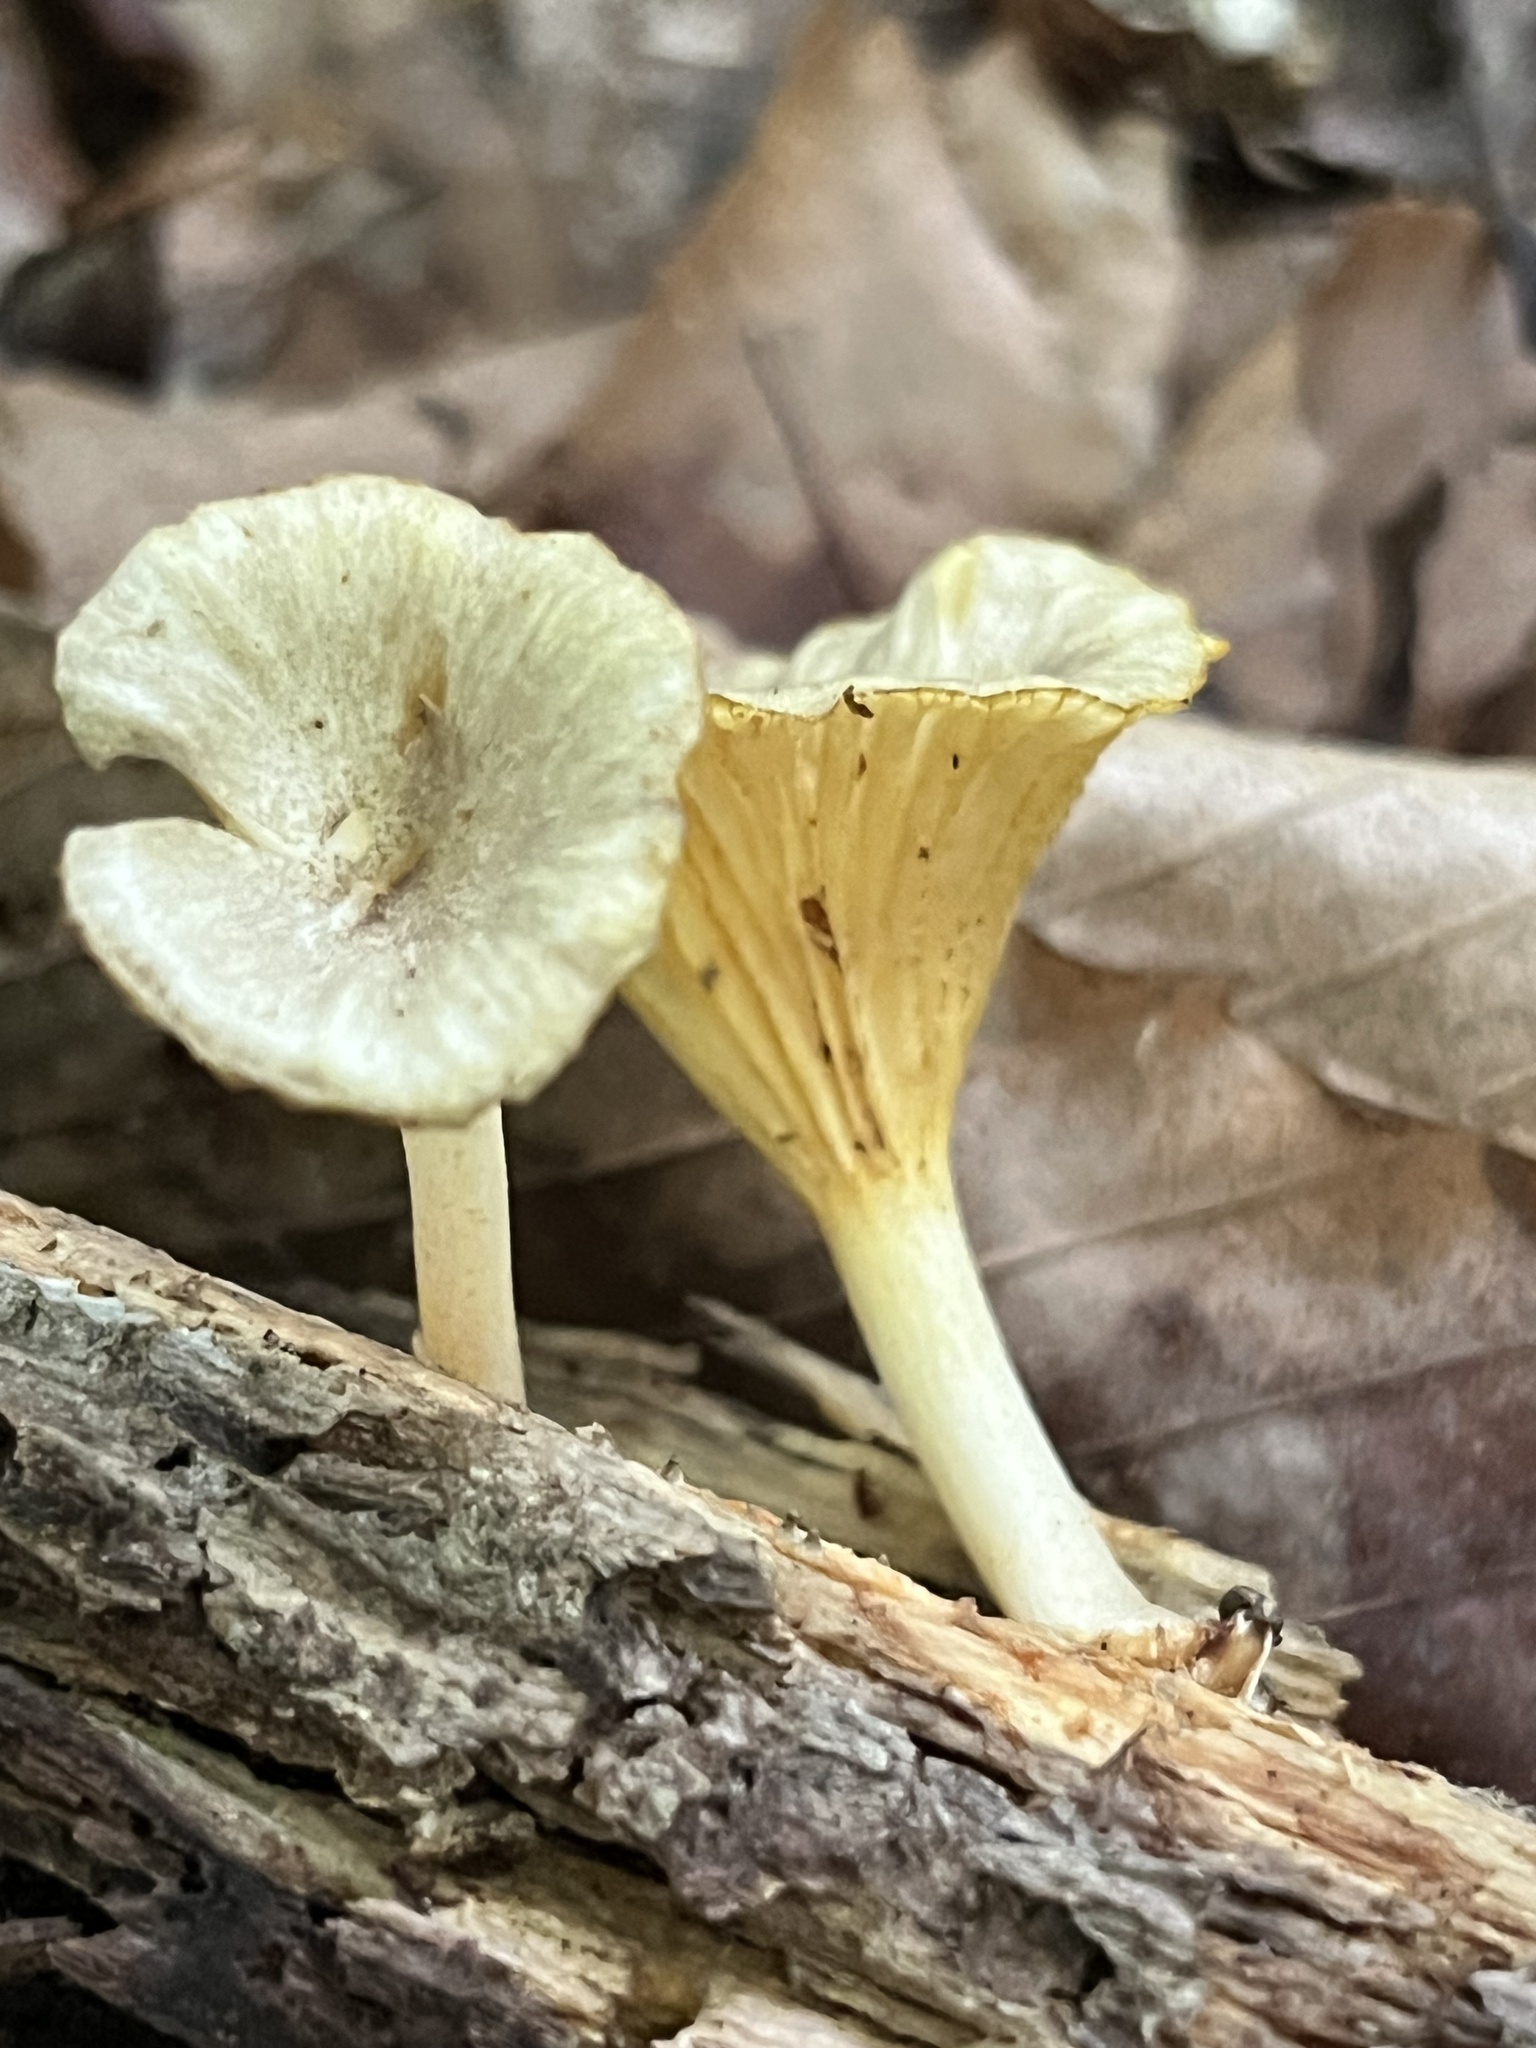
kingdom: Fungi
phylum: Basidiomycota
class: Agaricomycetes
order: Agaricales
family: Marasmiaceae
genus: Gerronema
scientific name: Gerronema strombodes
